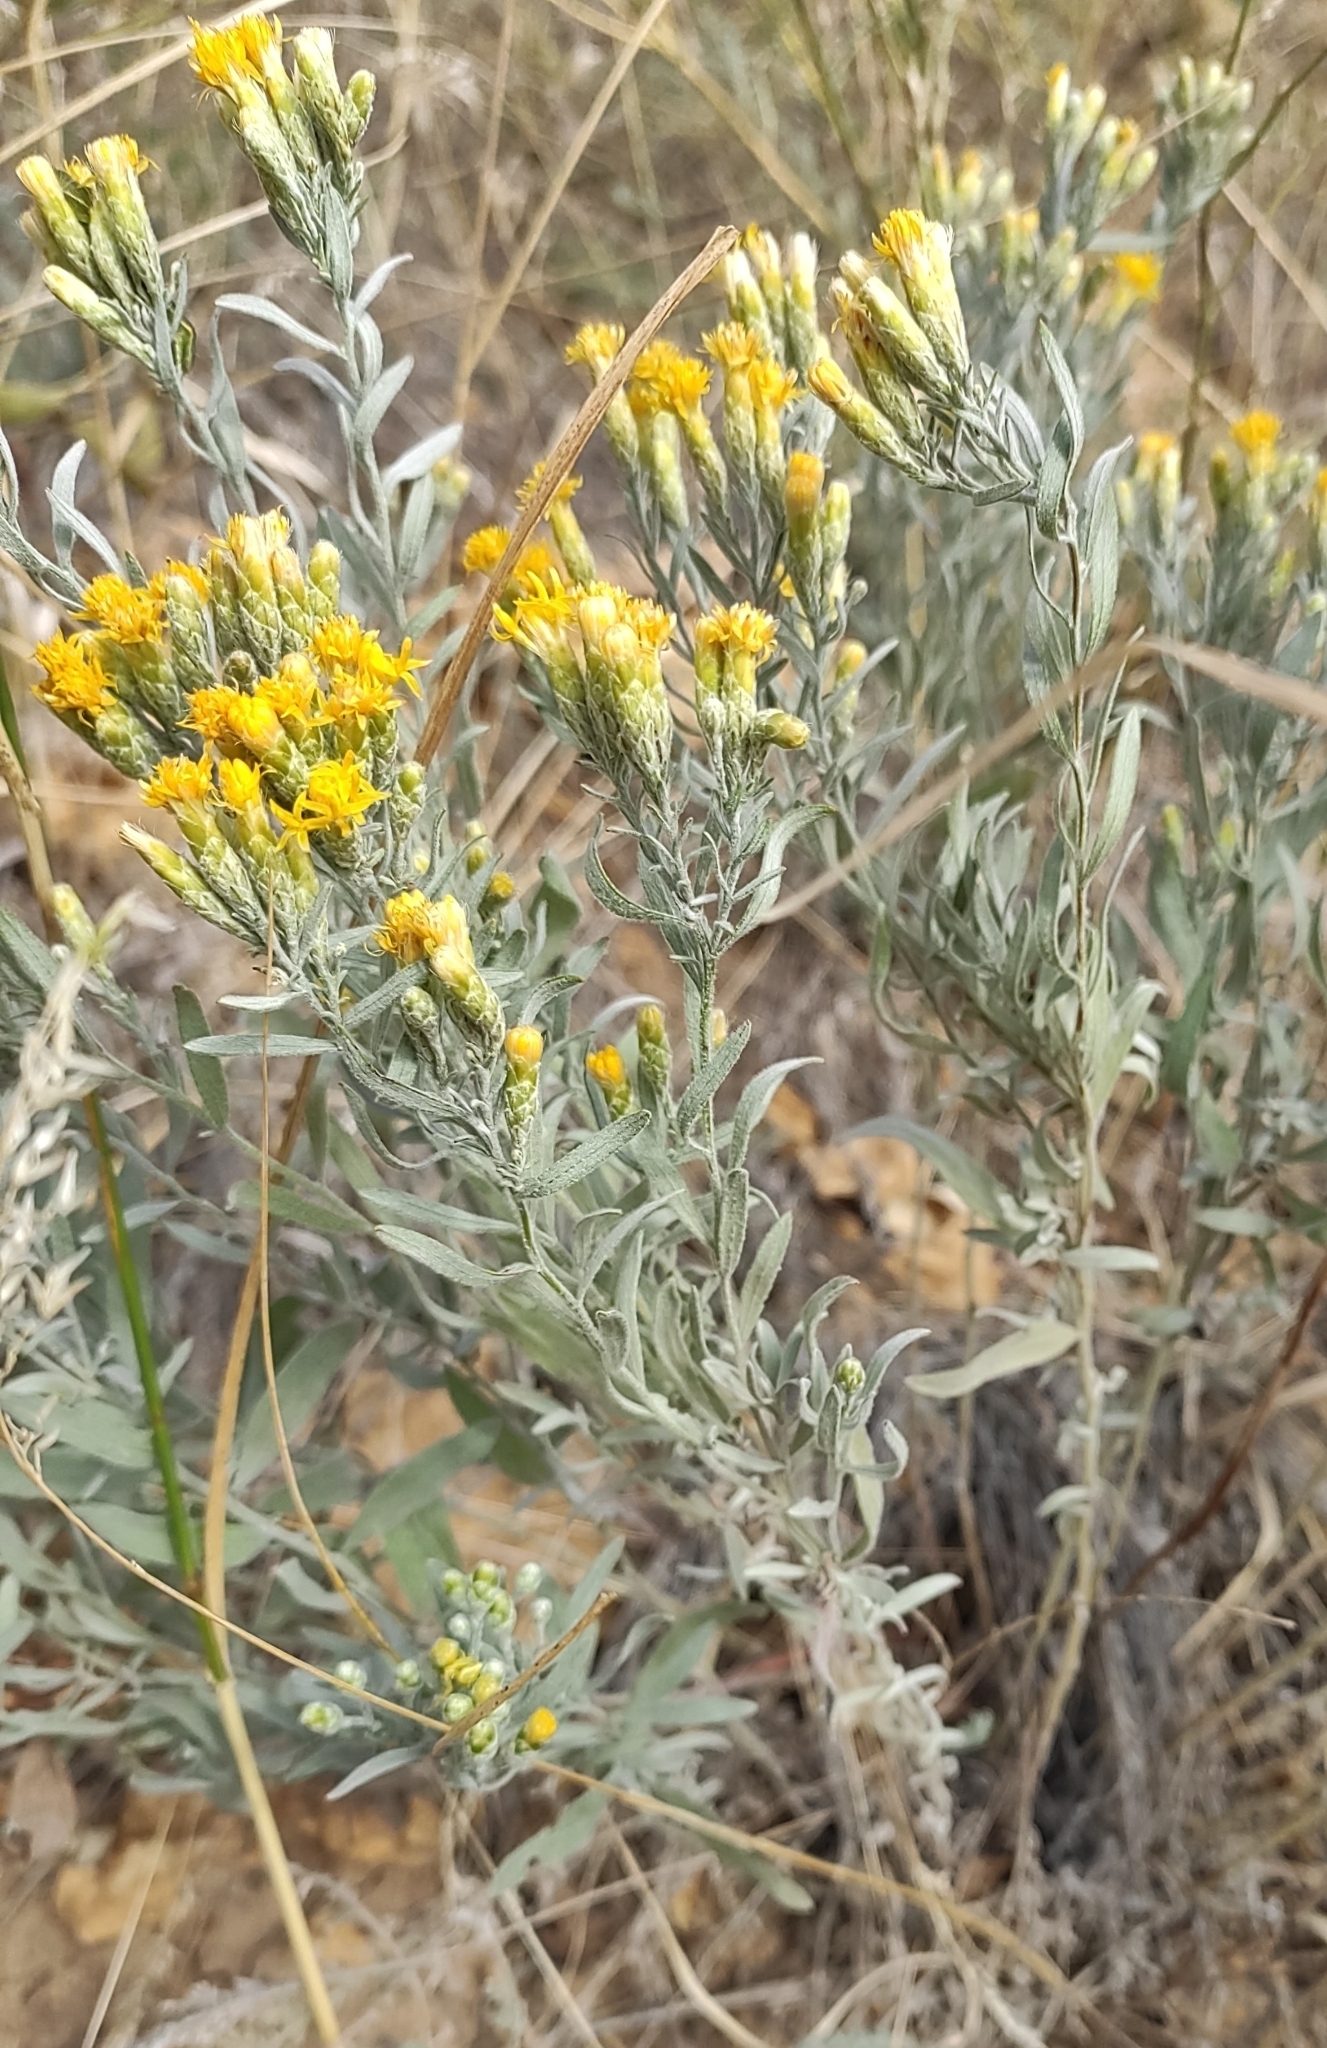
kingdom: Plantae
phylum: Tracheophyta
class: Magnoliopsida
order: Asterales
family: Asteraceae
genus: Galatella
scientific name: Galatella villosa
